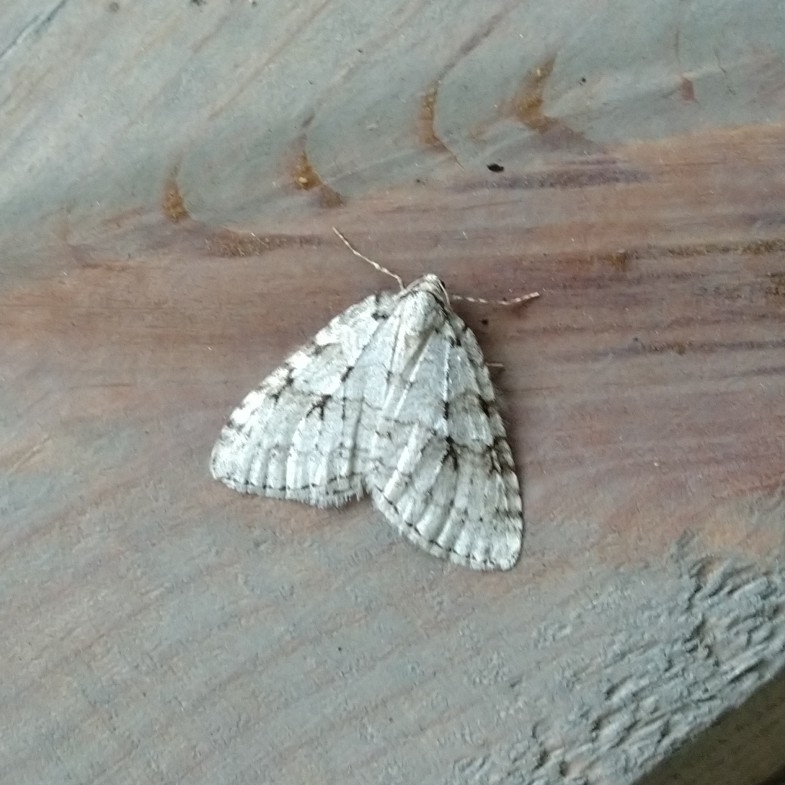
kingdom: Animalia
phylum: Arthropoda
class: Insecta
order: Lepidoptera
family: Geometridae
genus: Epirrita
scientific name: Epirrita autumnata
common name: Autumnal moth
